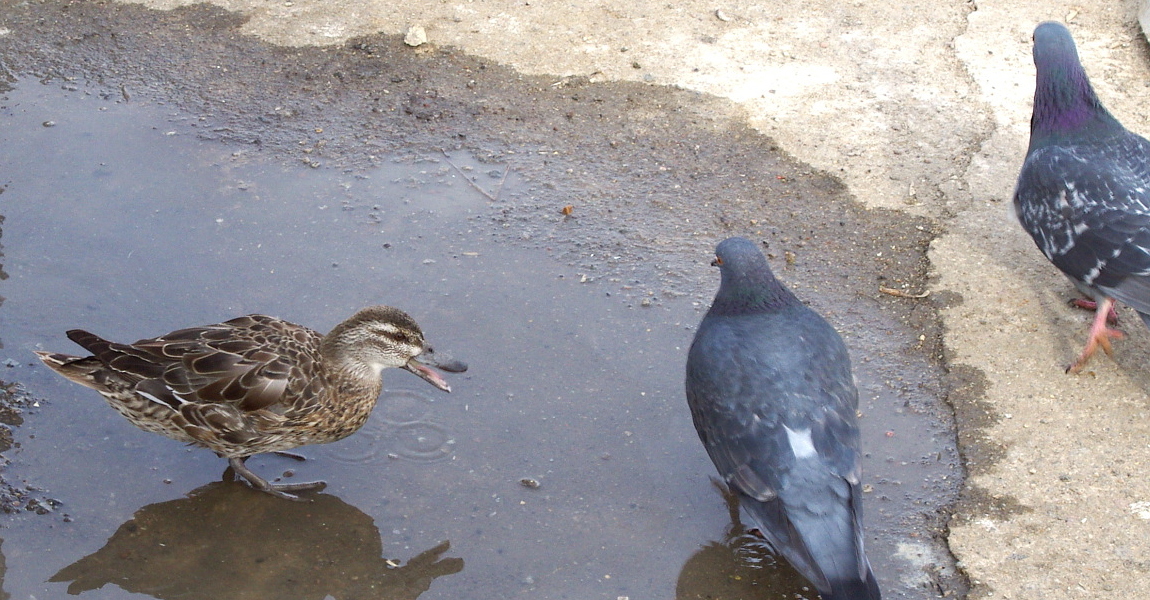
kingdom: Animalia
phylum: Chordata
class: Aves
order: Anseriformes
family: Anatidae
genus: Spatula
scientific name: Spatula querquedula
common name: Garganey
